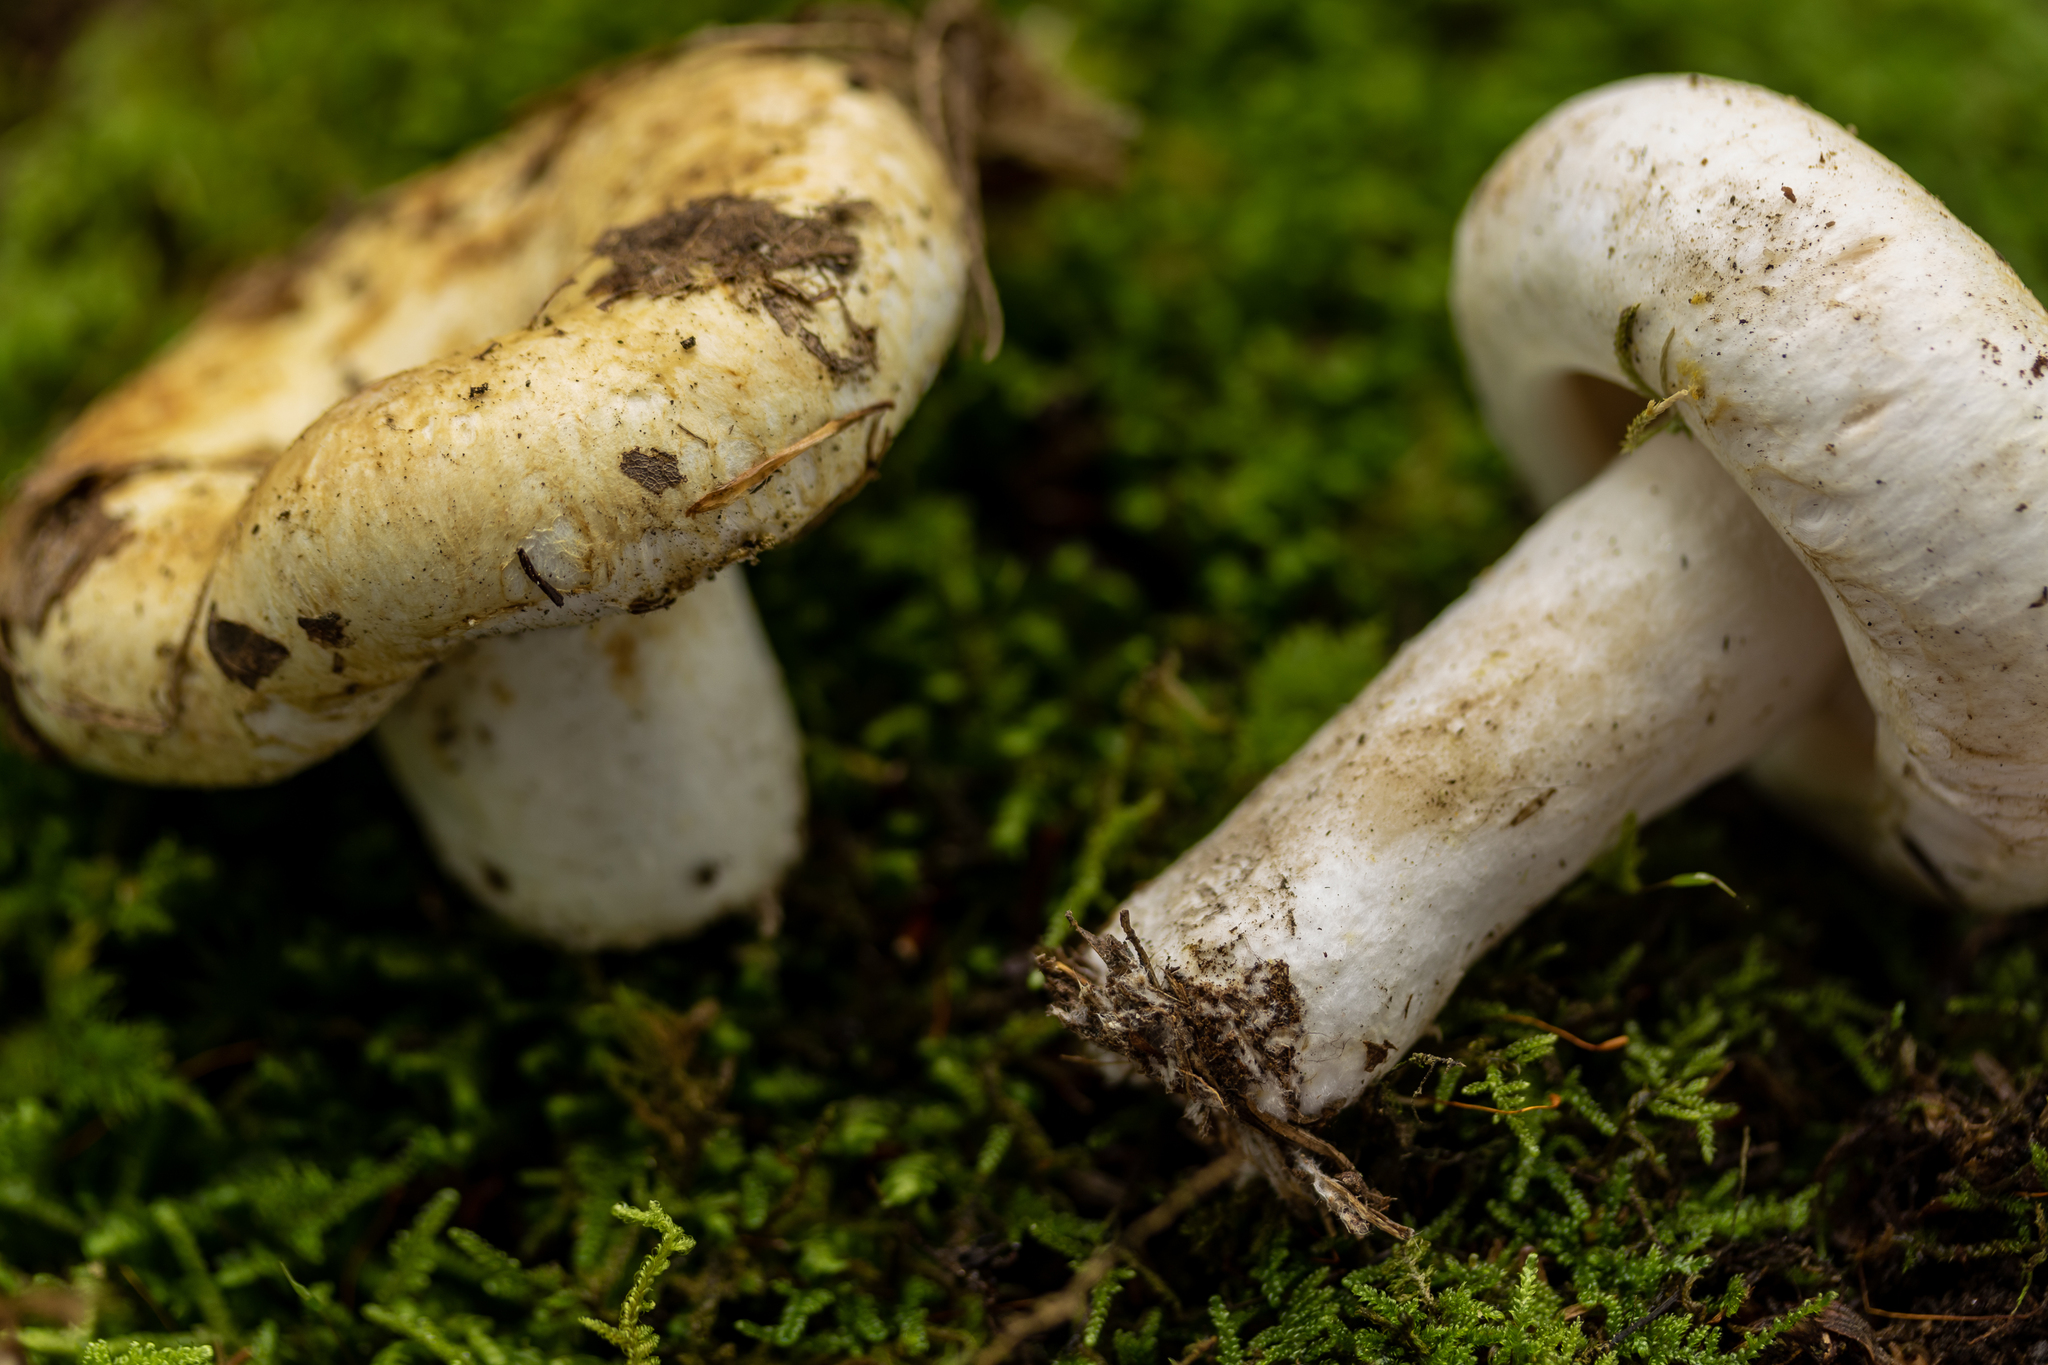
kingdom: Fungi
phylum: Basidiomycota
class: Agaricomycetes
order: Russulales
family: Russulaceae
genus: Lactifluus
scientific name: Lactifluus
